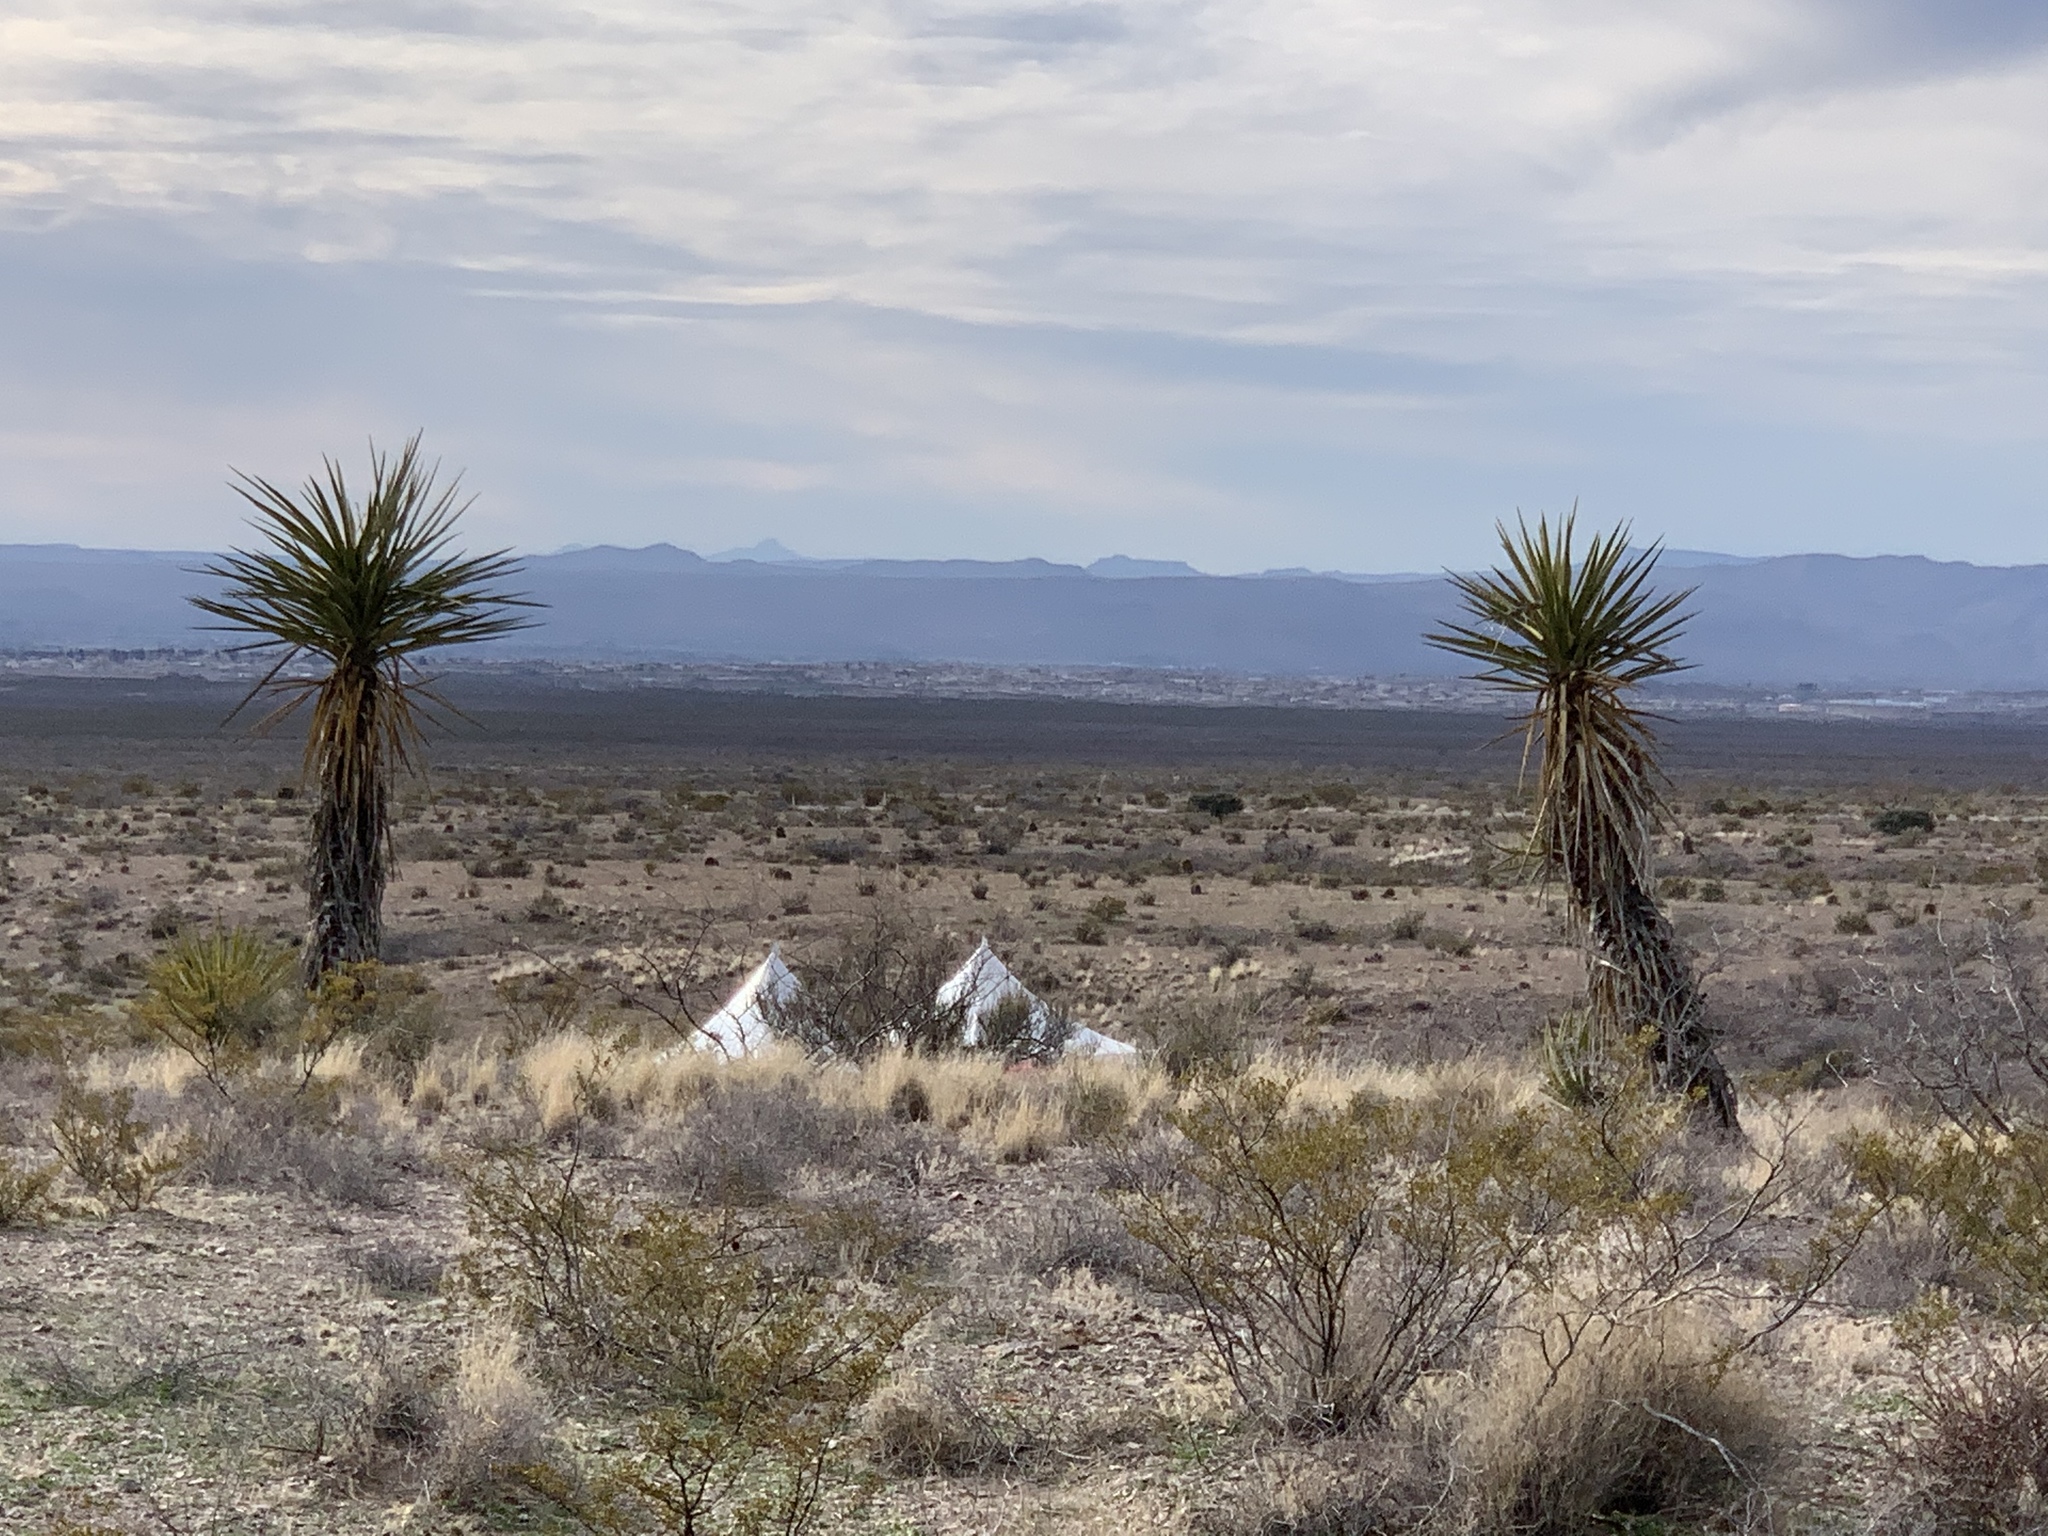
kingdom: Plantae
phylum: Tracheophyta
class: Liliopsida
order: Asparagales
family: Asparagaceae
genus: Yucca
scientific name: Yucca treculiana
